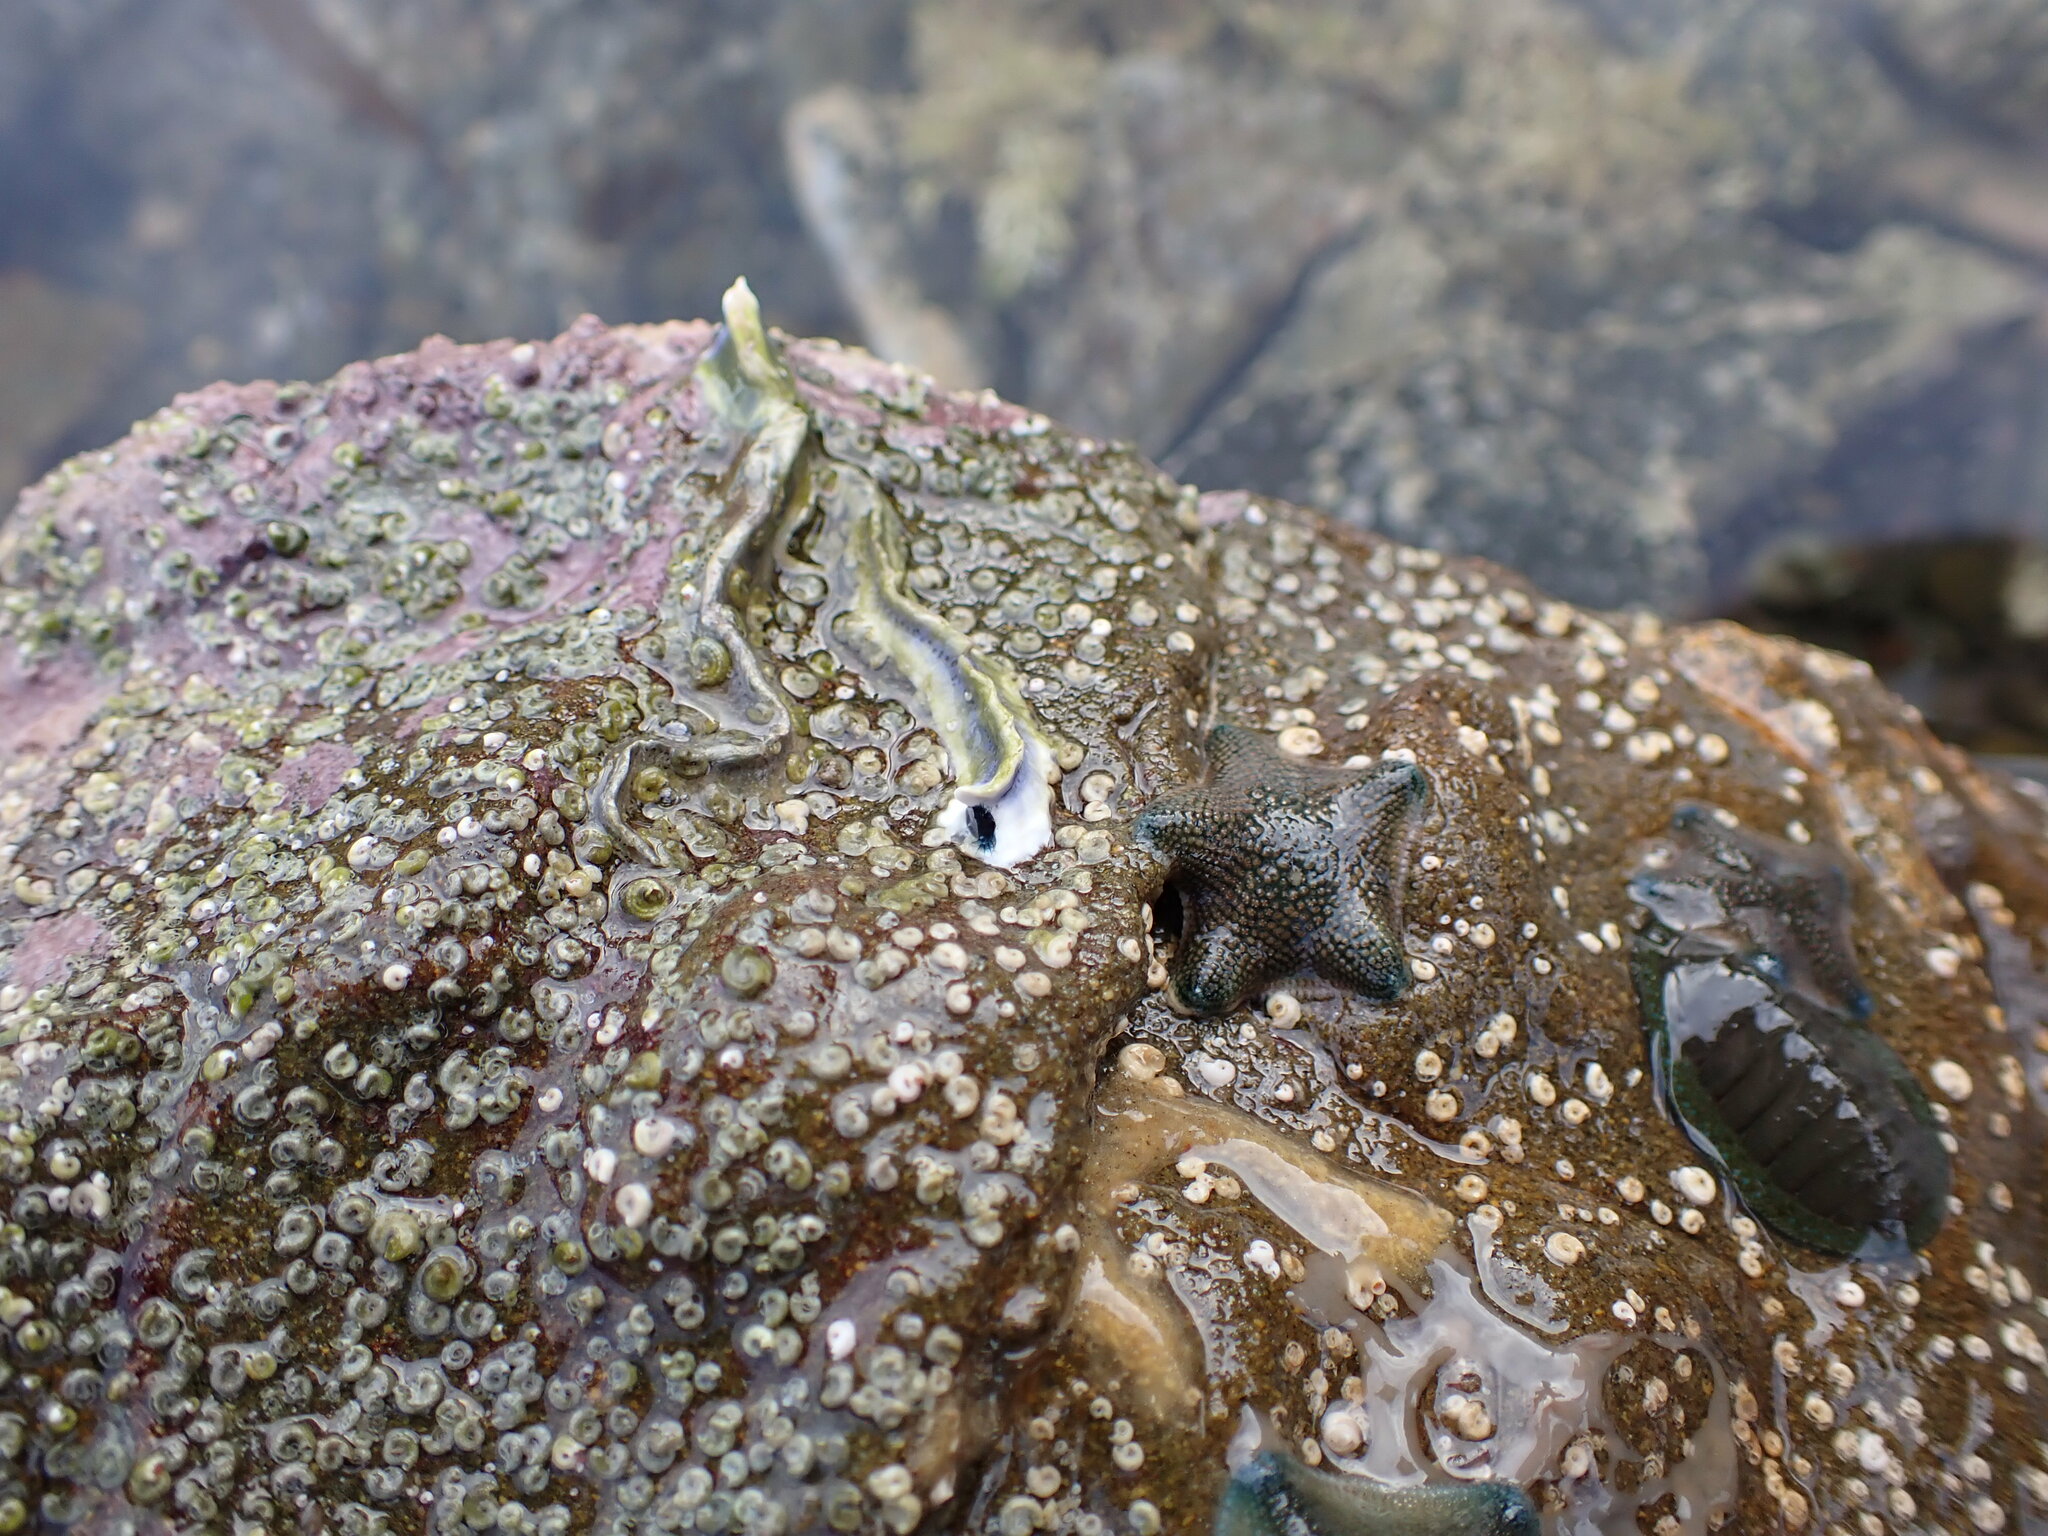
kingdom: Animalia
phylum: Annelida
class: Polychaeta
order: Sabellida
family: Serpulidae
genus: Spirobranchus
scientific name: Spirobranchus cariniferus
